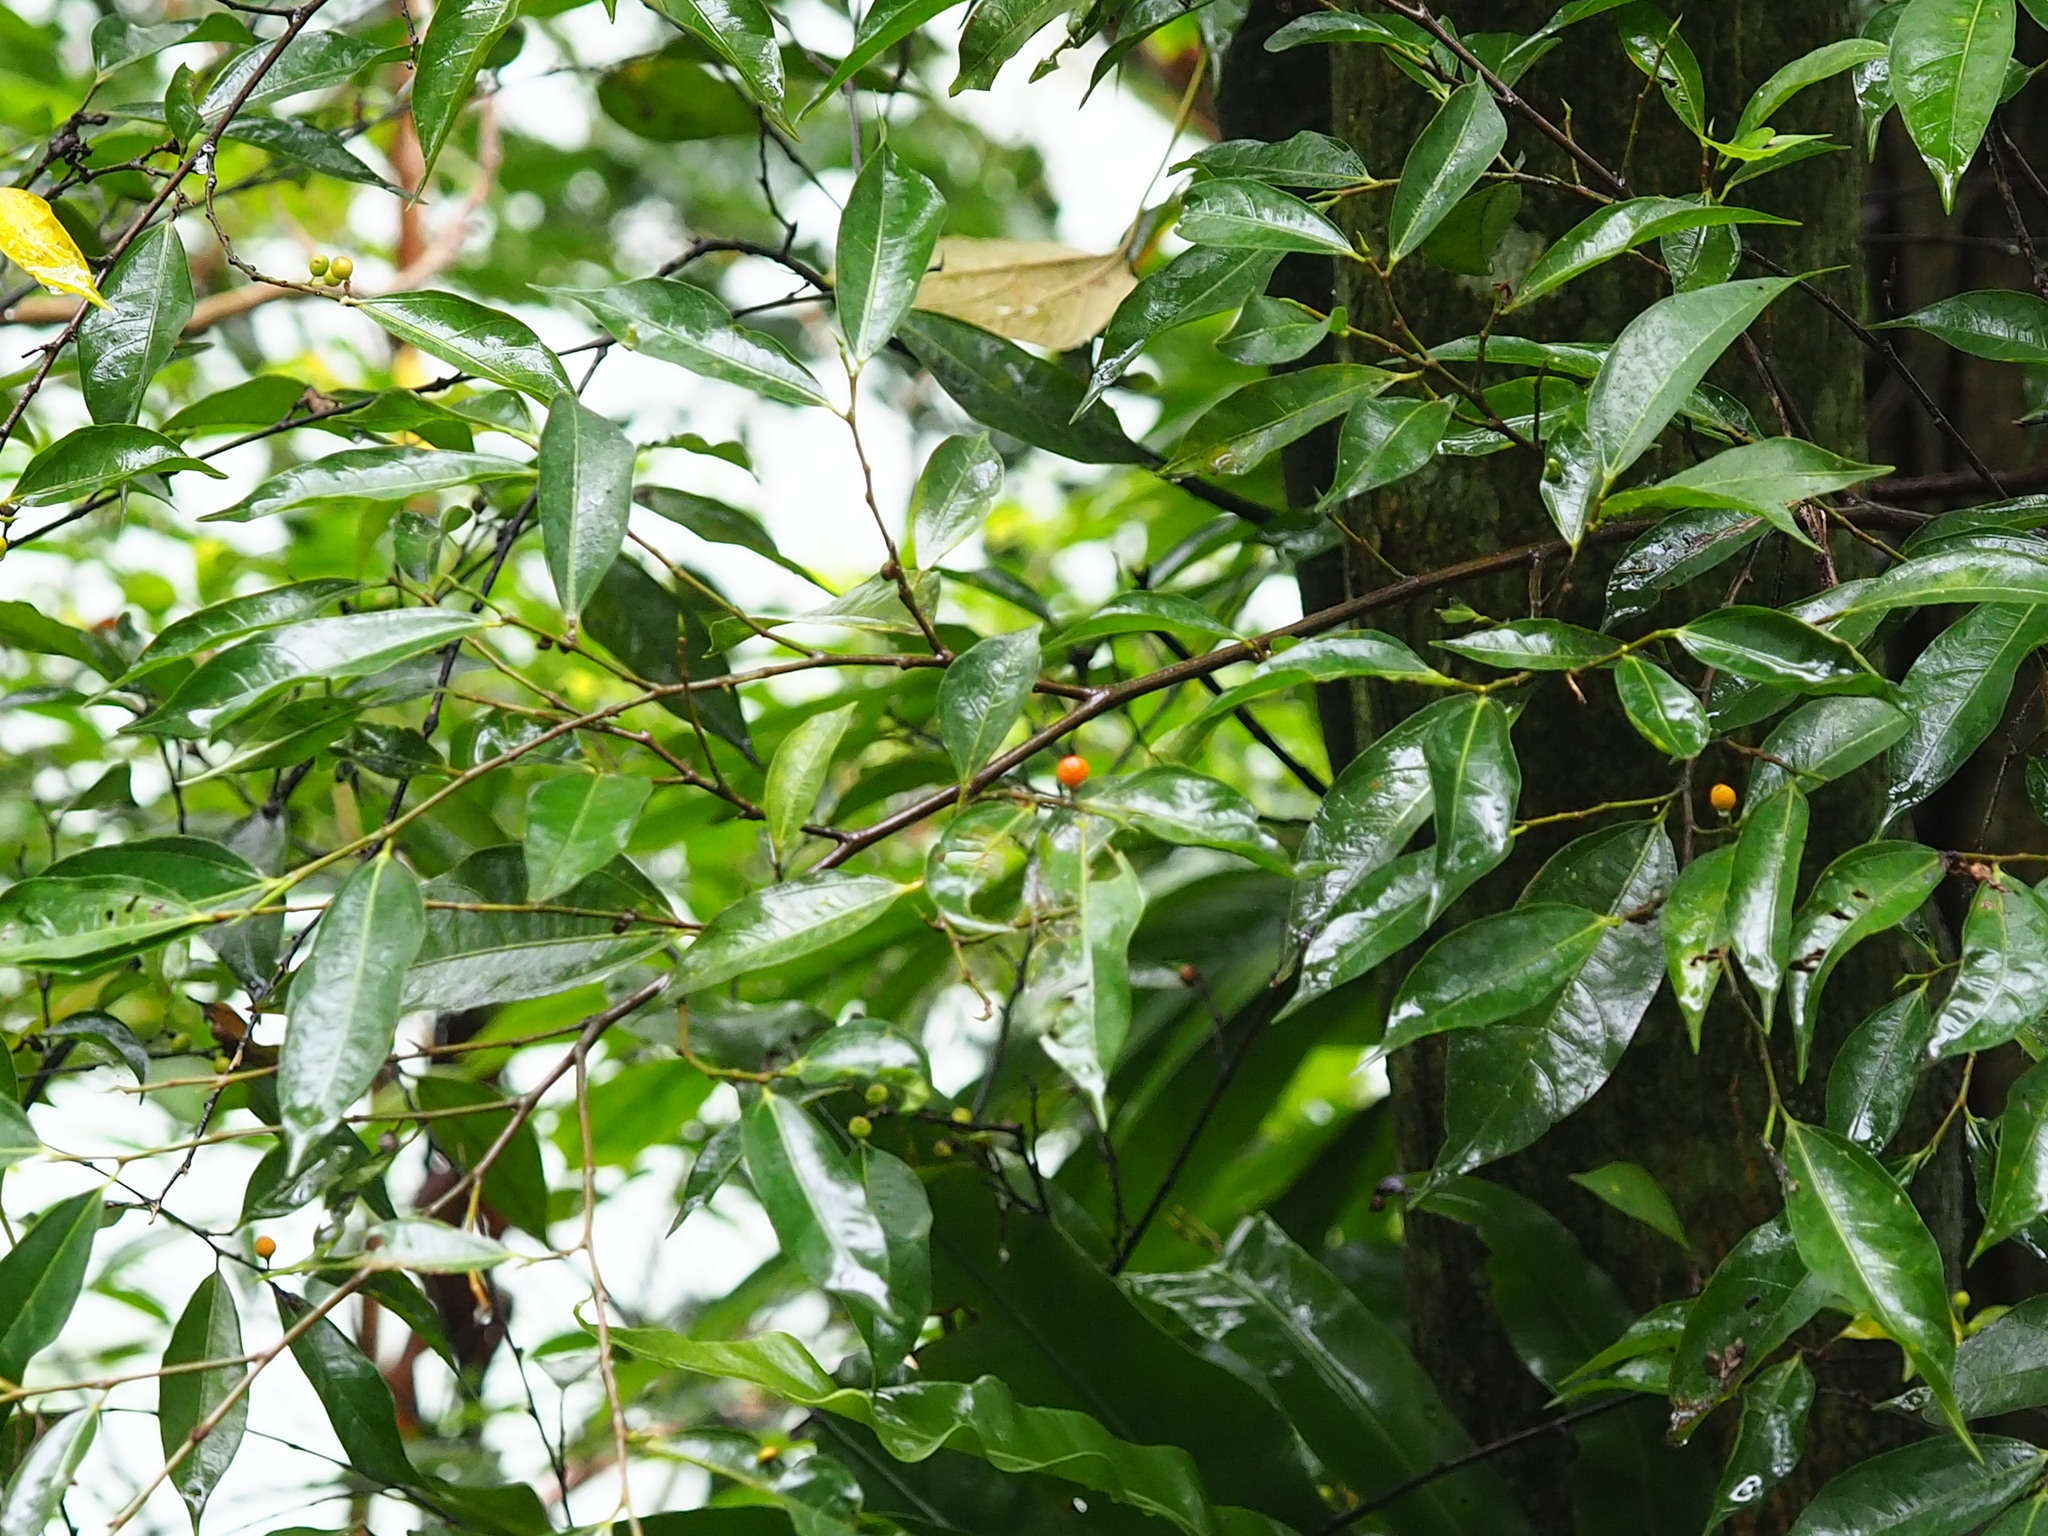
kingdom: Plantae
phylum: Tracheophyta
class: Magnoliopsida
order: Rosales
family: Moraceae
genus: Ficus
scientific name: Ficus ampelos
